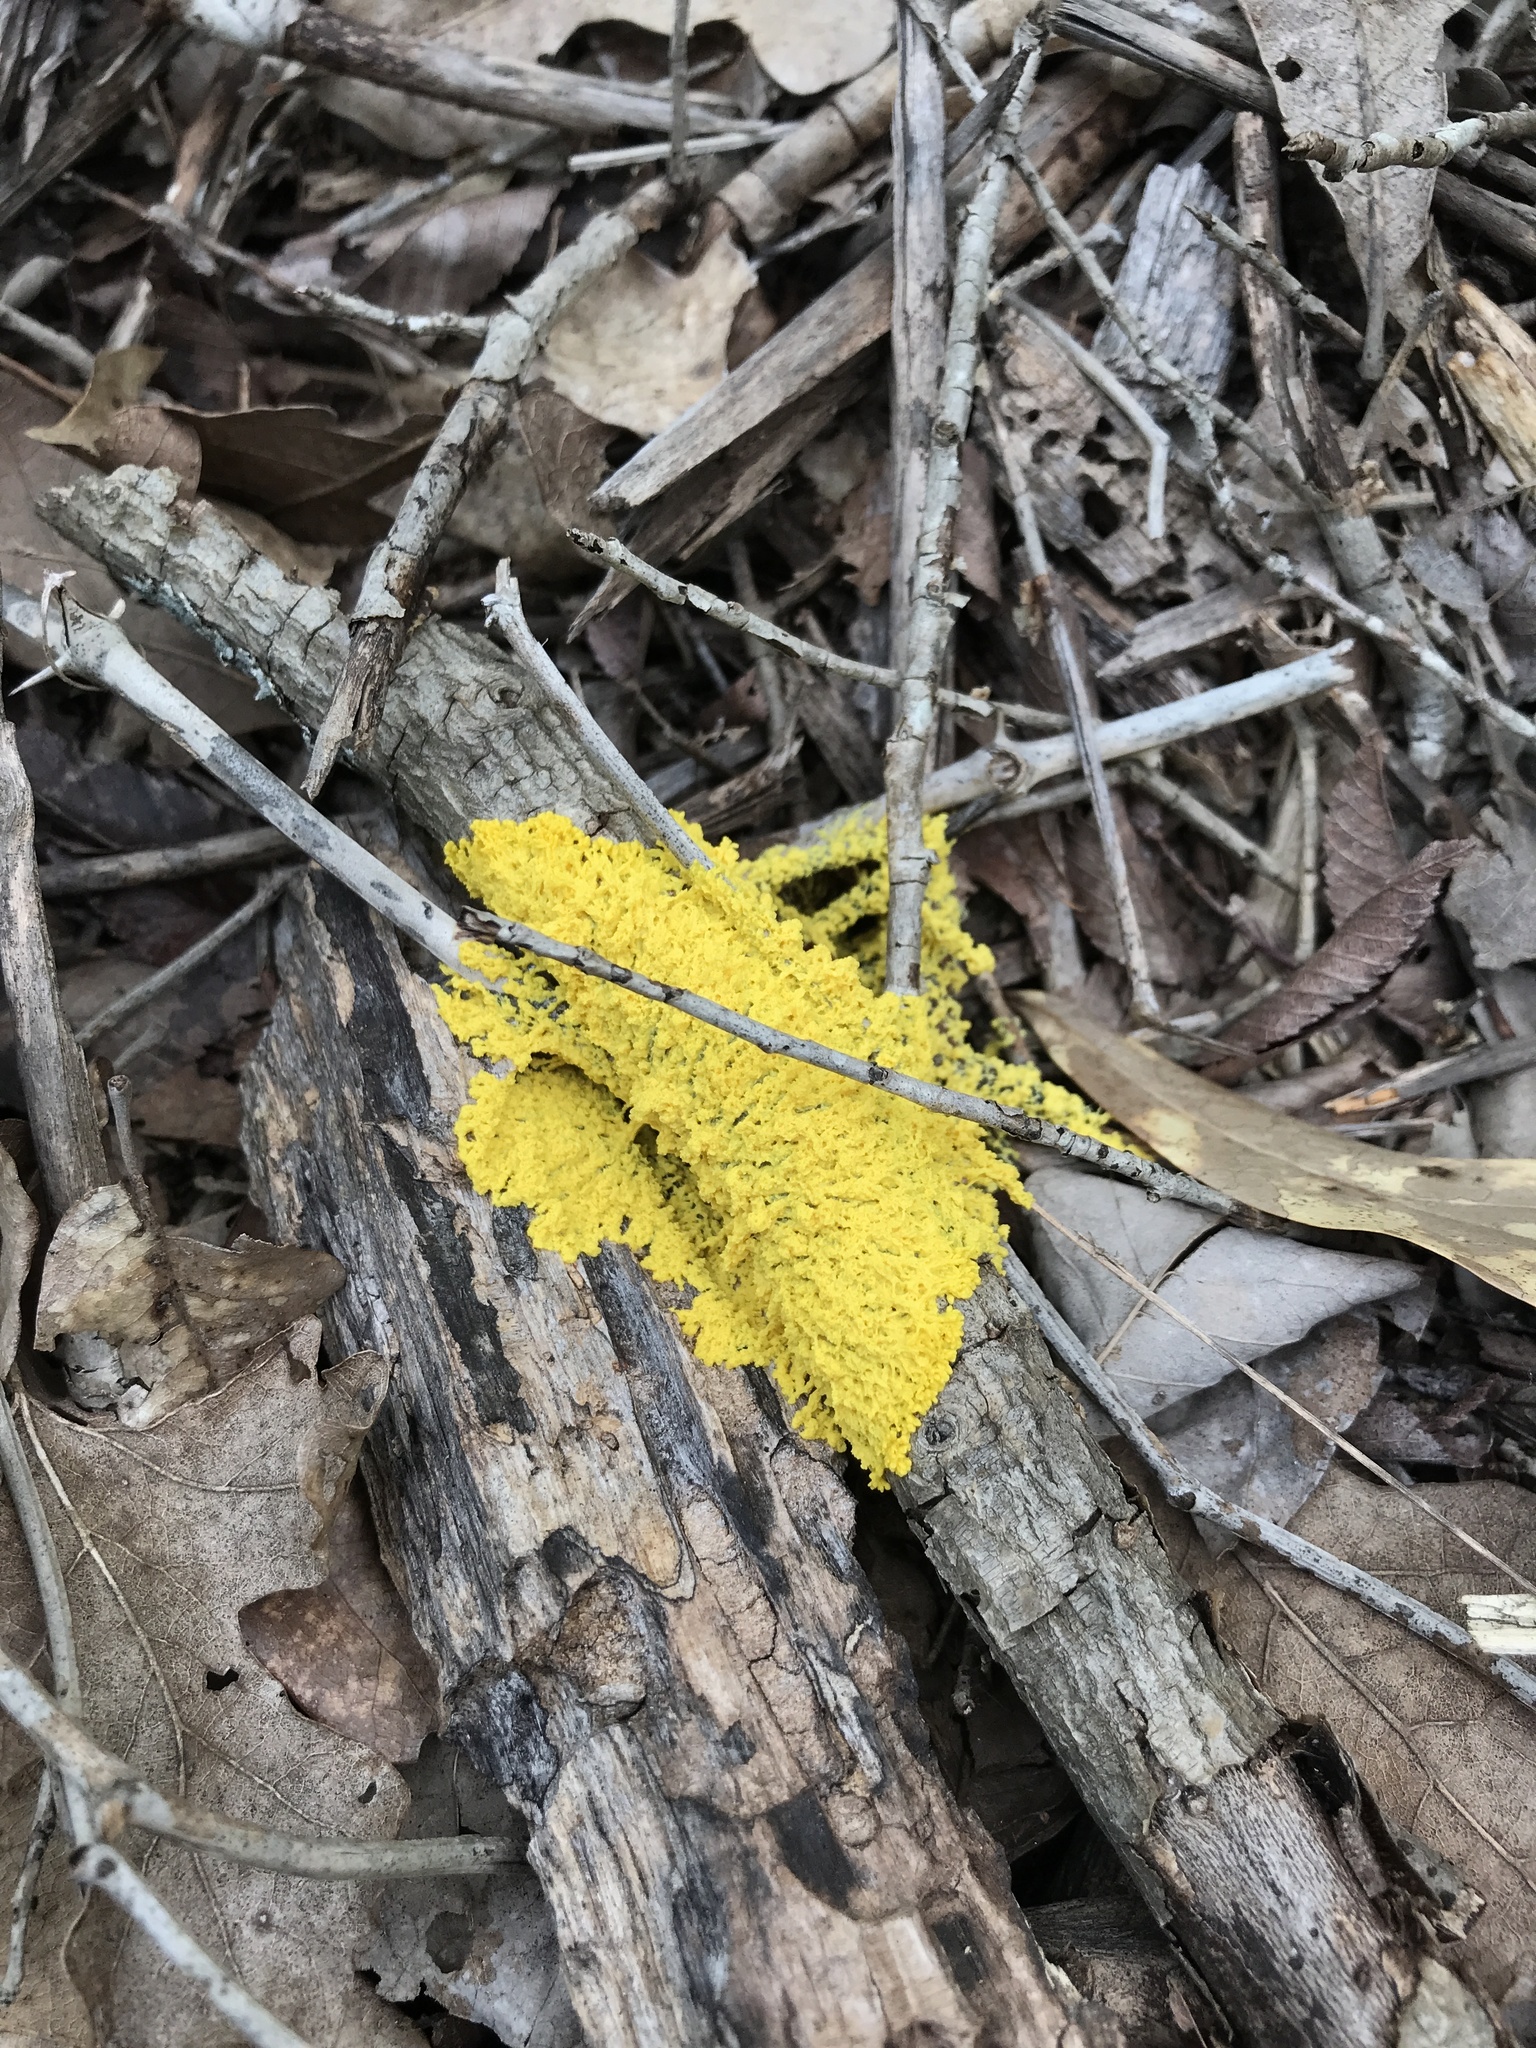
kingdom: Protozoa
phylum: Mycetozoa
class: Myxomycetes
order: Physarales
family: Physaraceae
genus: Fuligo
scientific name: Fuligo septica
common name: Dog vomit slime mold
